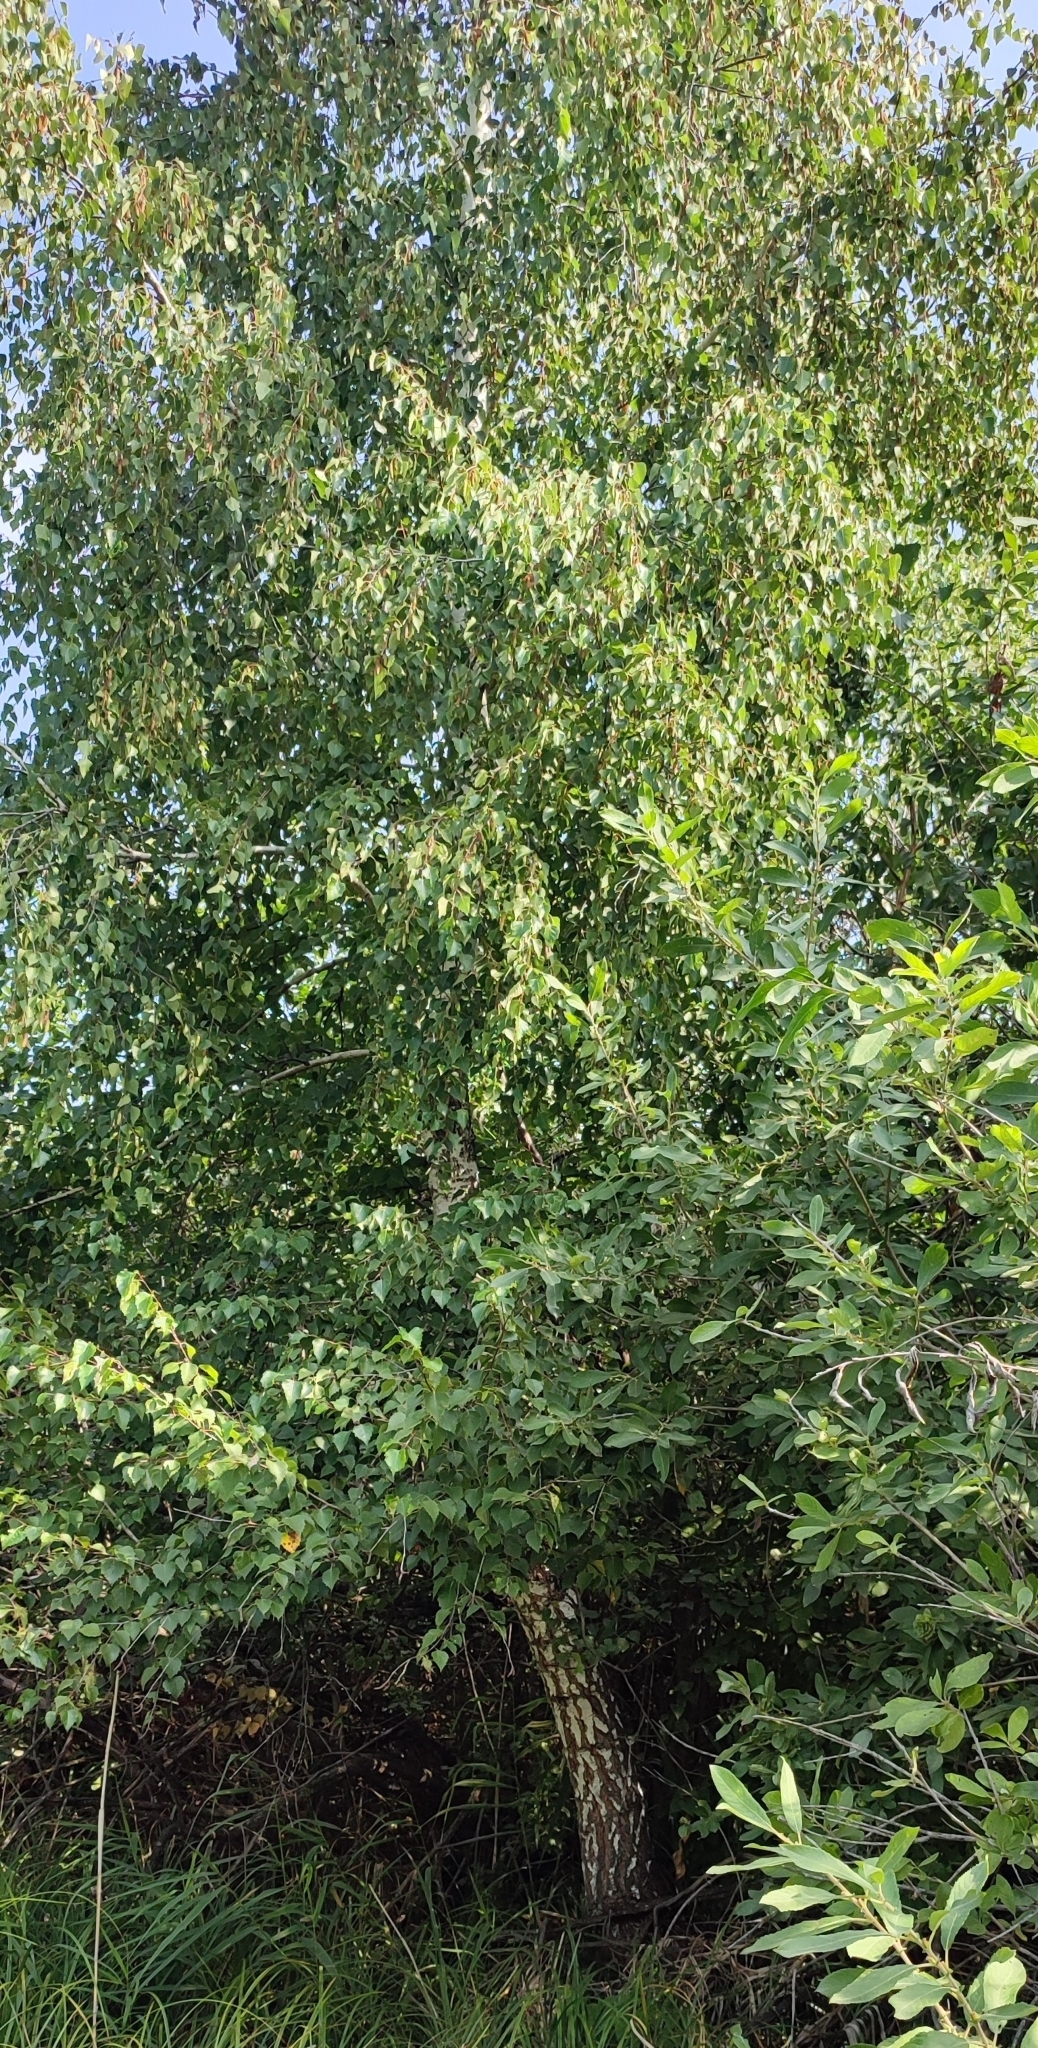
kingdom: Plantae
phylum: Tracheophyta
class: Magnoliopsida
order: Fagales
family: Betulaceae
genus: Betula
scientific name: Betula pendula
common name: Silver birch
